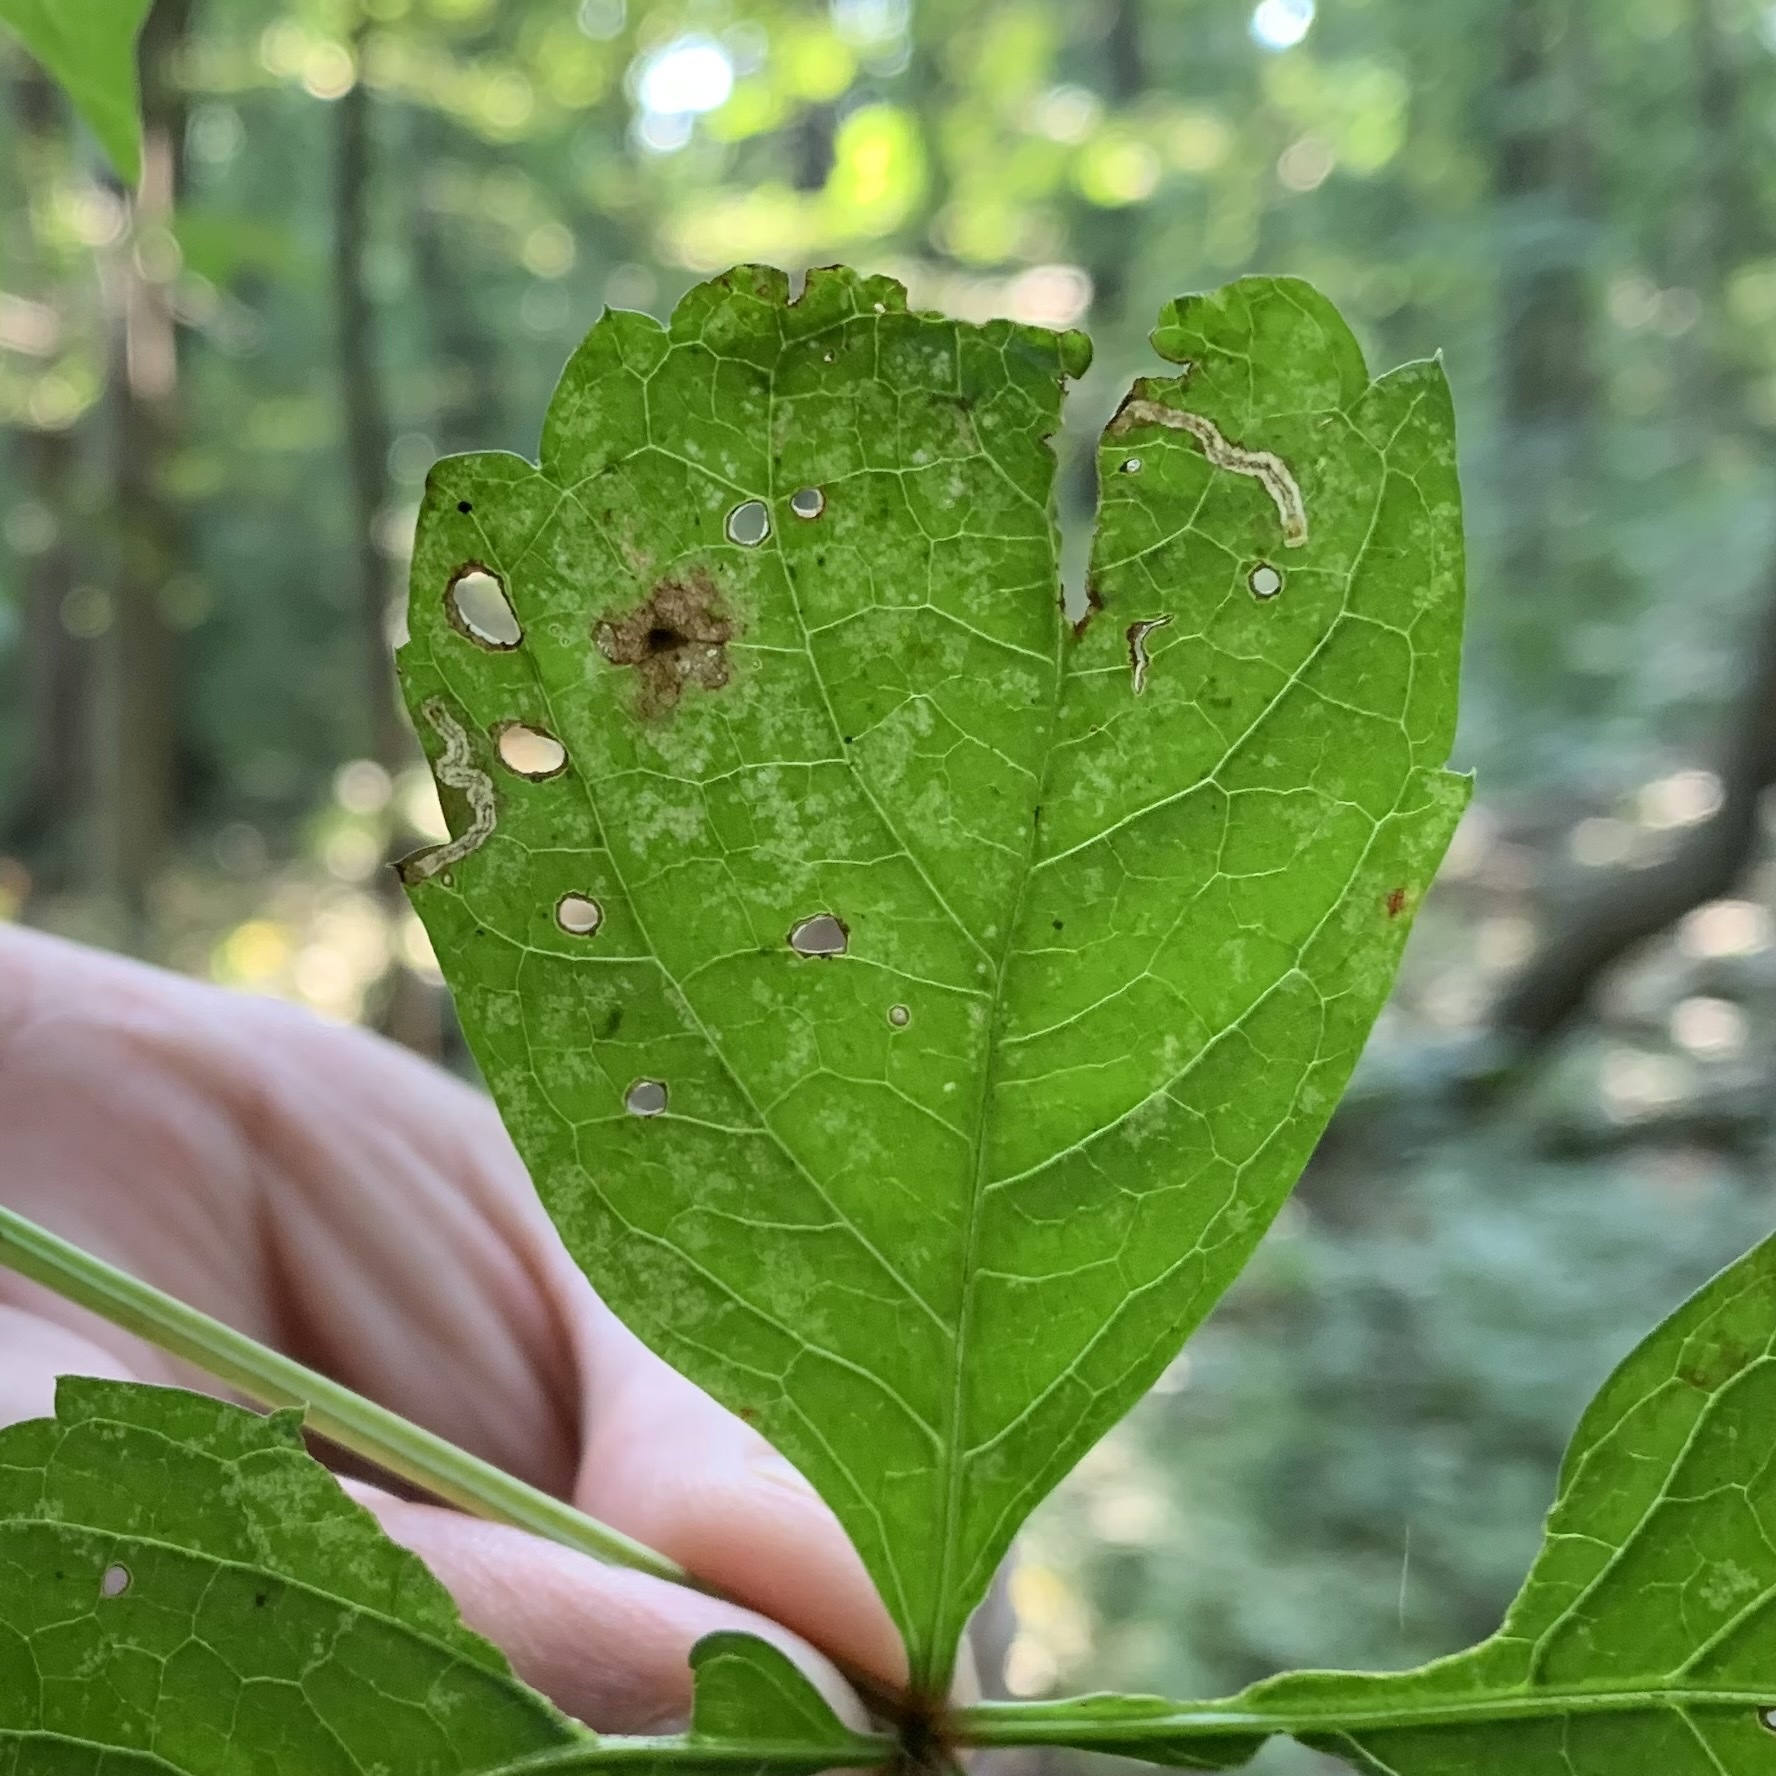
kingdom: Animalia
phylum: Arthropoda
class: Insecta
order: Coleoptera
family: Curculionidae
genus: Orchestomerus
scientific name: Orchestomerus eisemani
